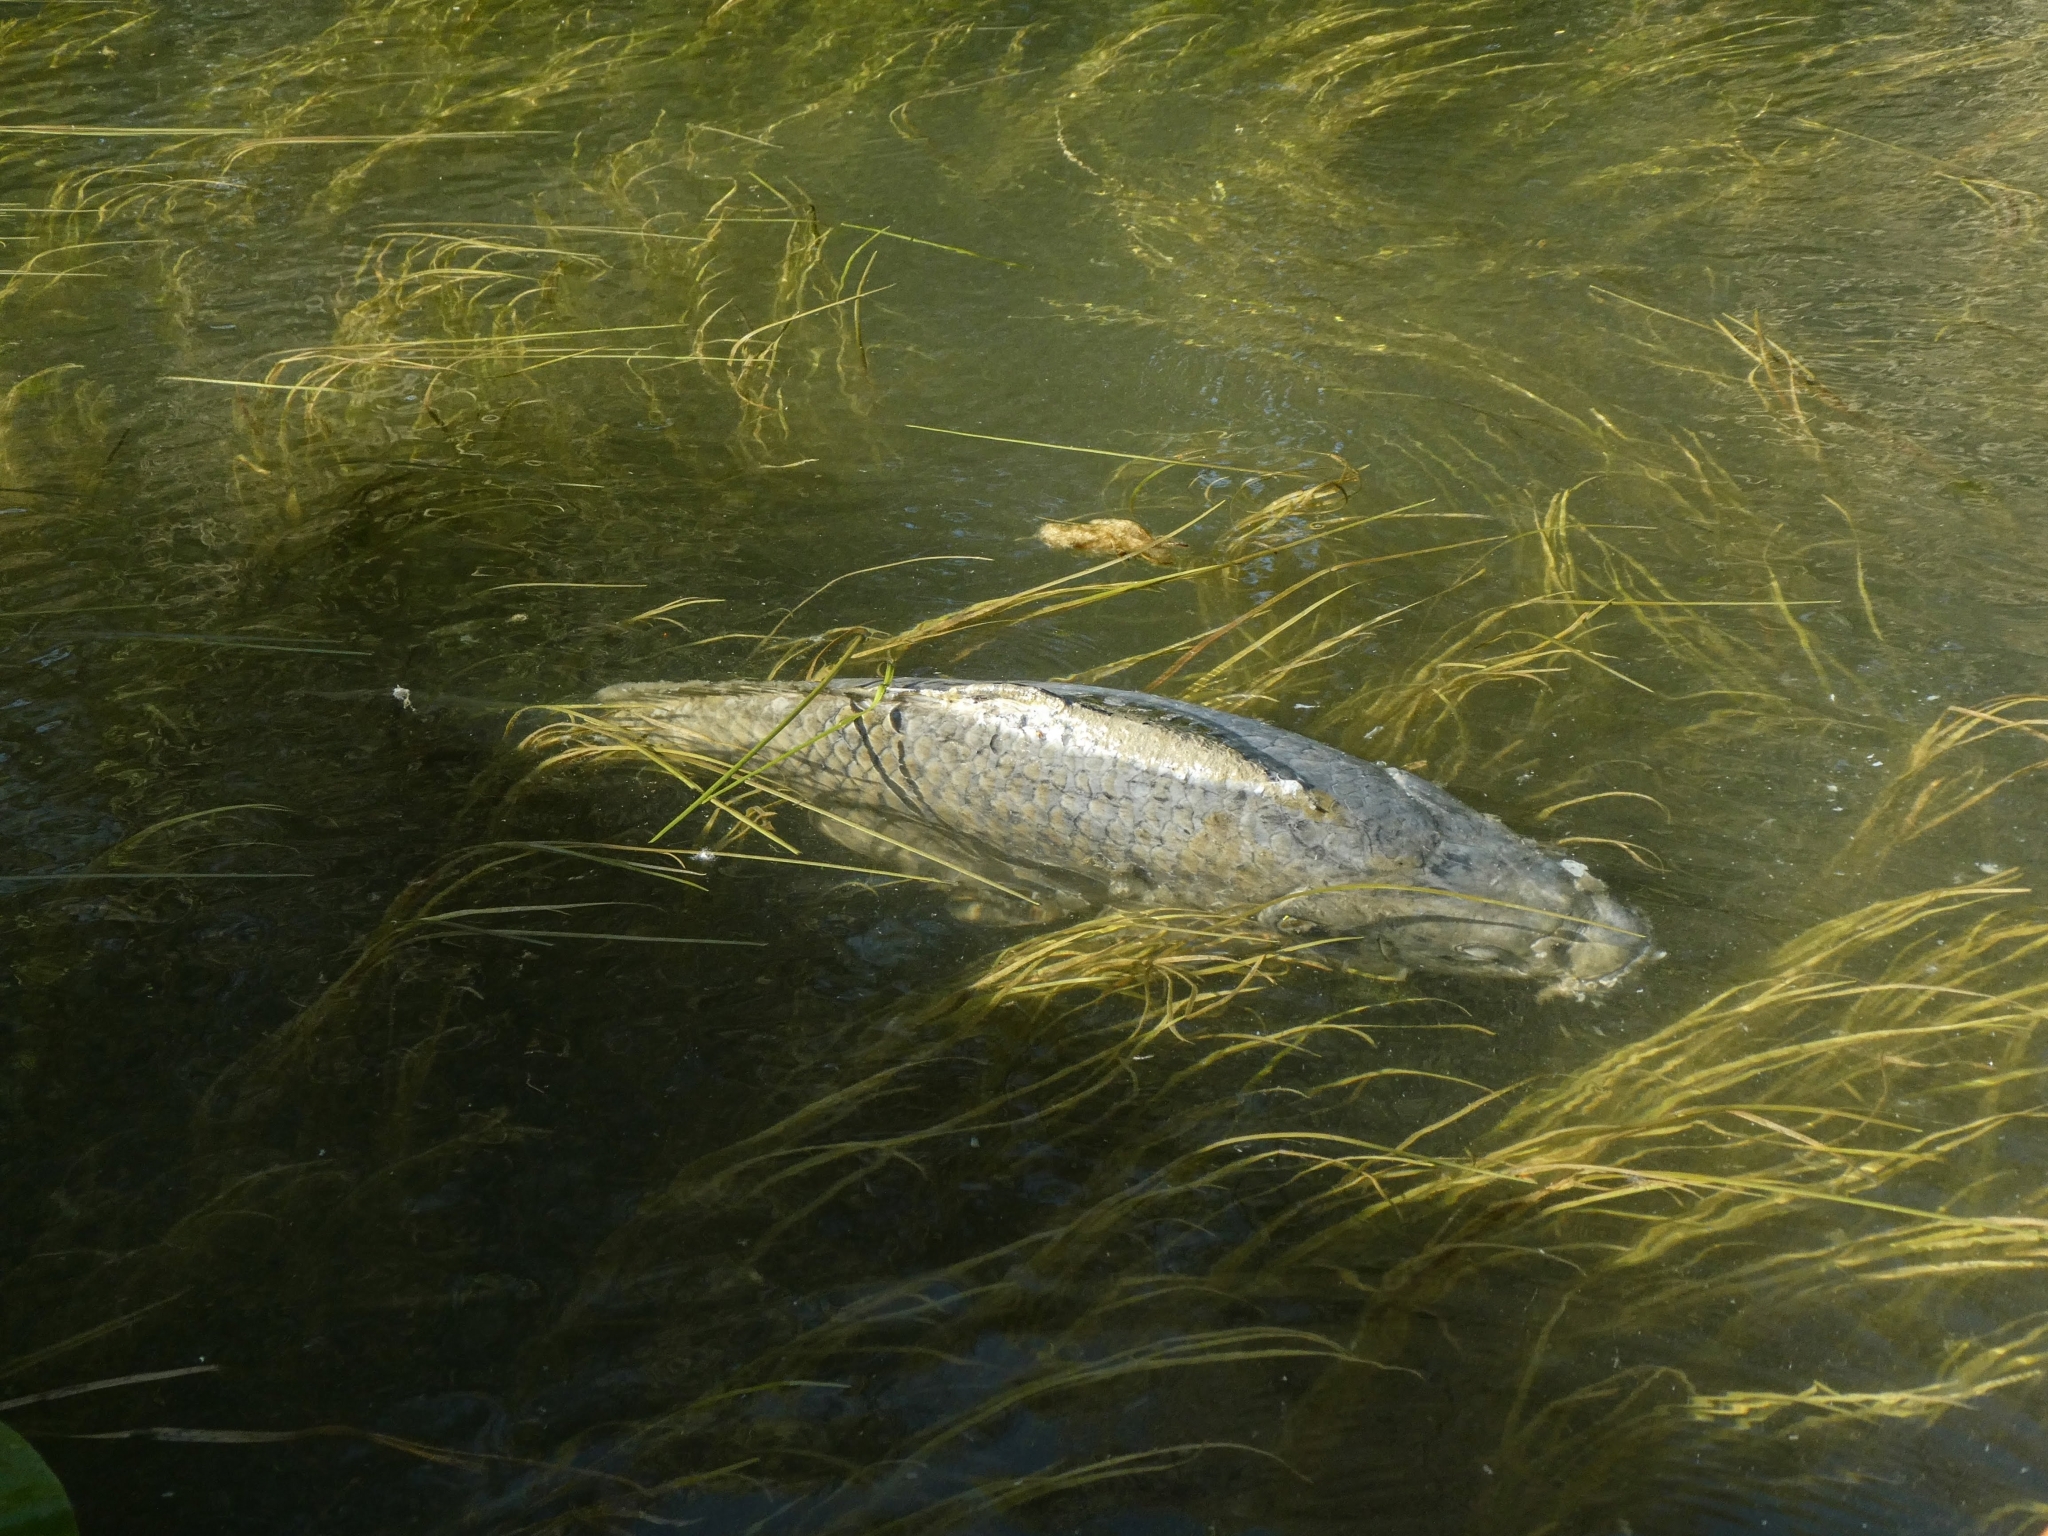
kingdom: Animalia
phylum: Chordata
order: Cypriniformes
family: Cyprinidae
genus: Cyprinus
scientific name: Cyprinus carpio
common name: Common carp
